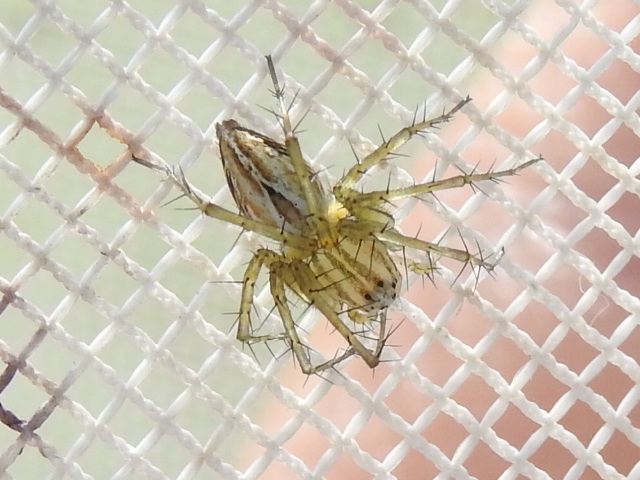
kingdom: Animalia
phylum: Arthropoda
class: Arachnida
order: Araneae
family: Oxyopidae
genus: Oxyopes
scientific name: Oxyopes salticus
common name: Lynx spiders
